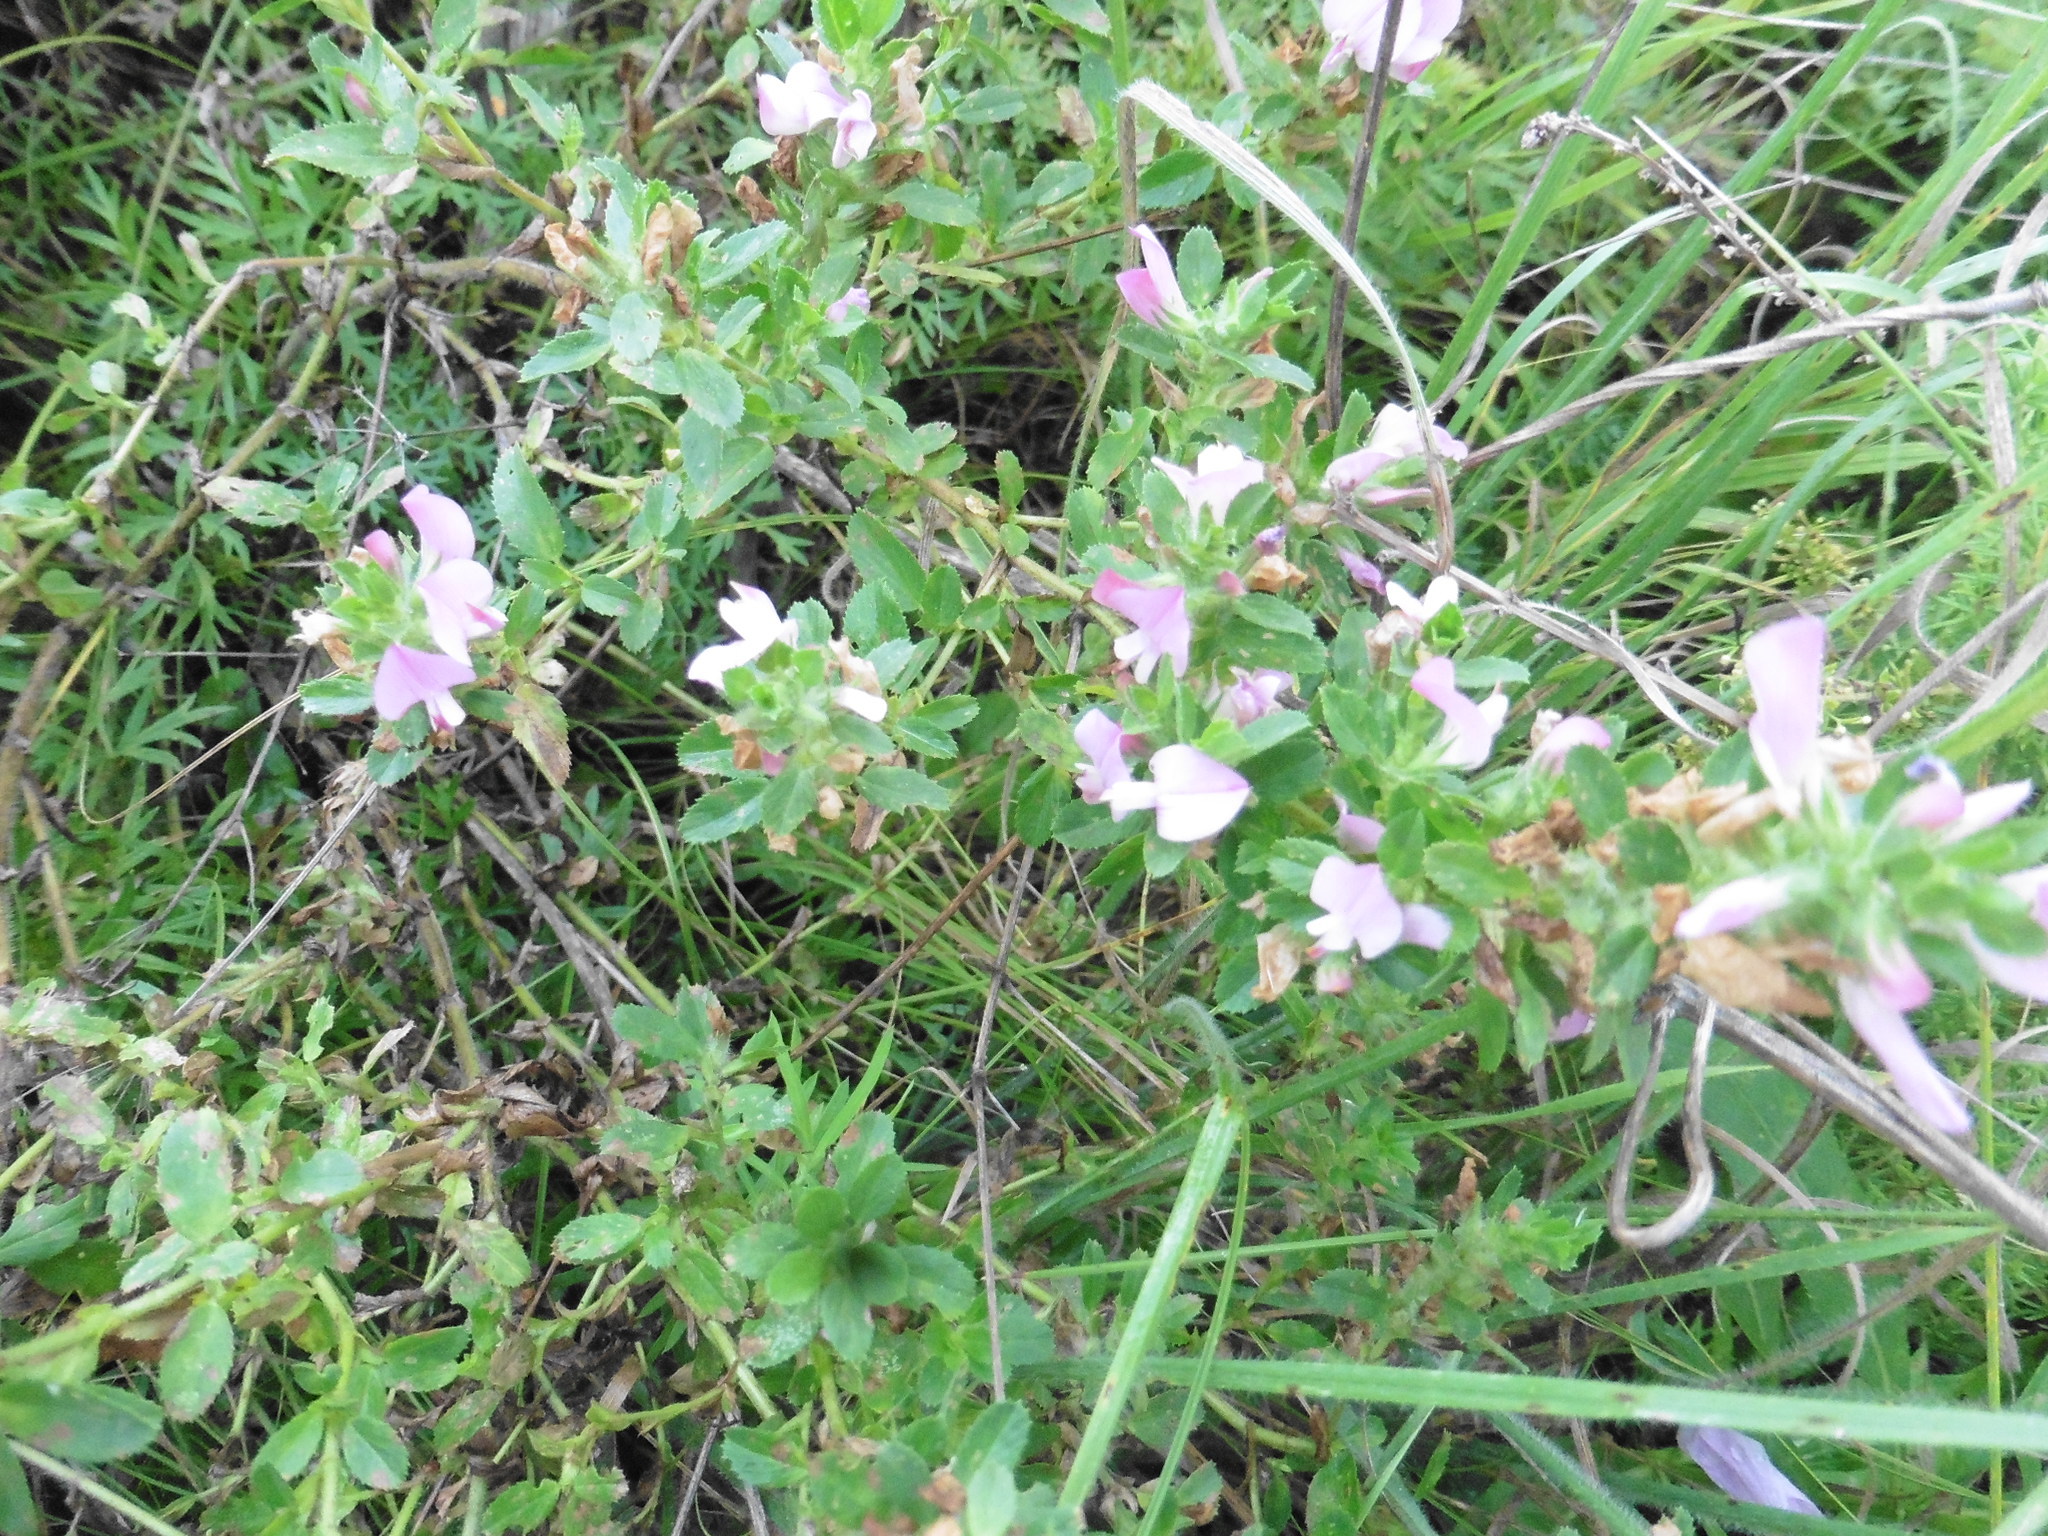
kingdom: Plantae
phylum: Tracheophyta
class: Magnoliopsida
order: Fabales
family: Fabaceae
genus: Ononis
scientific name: Ononis arvensis
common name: Field restharrow
